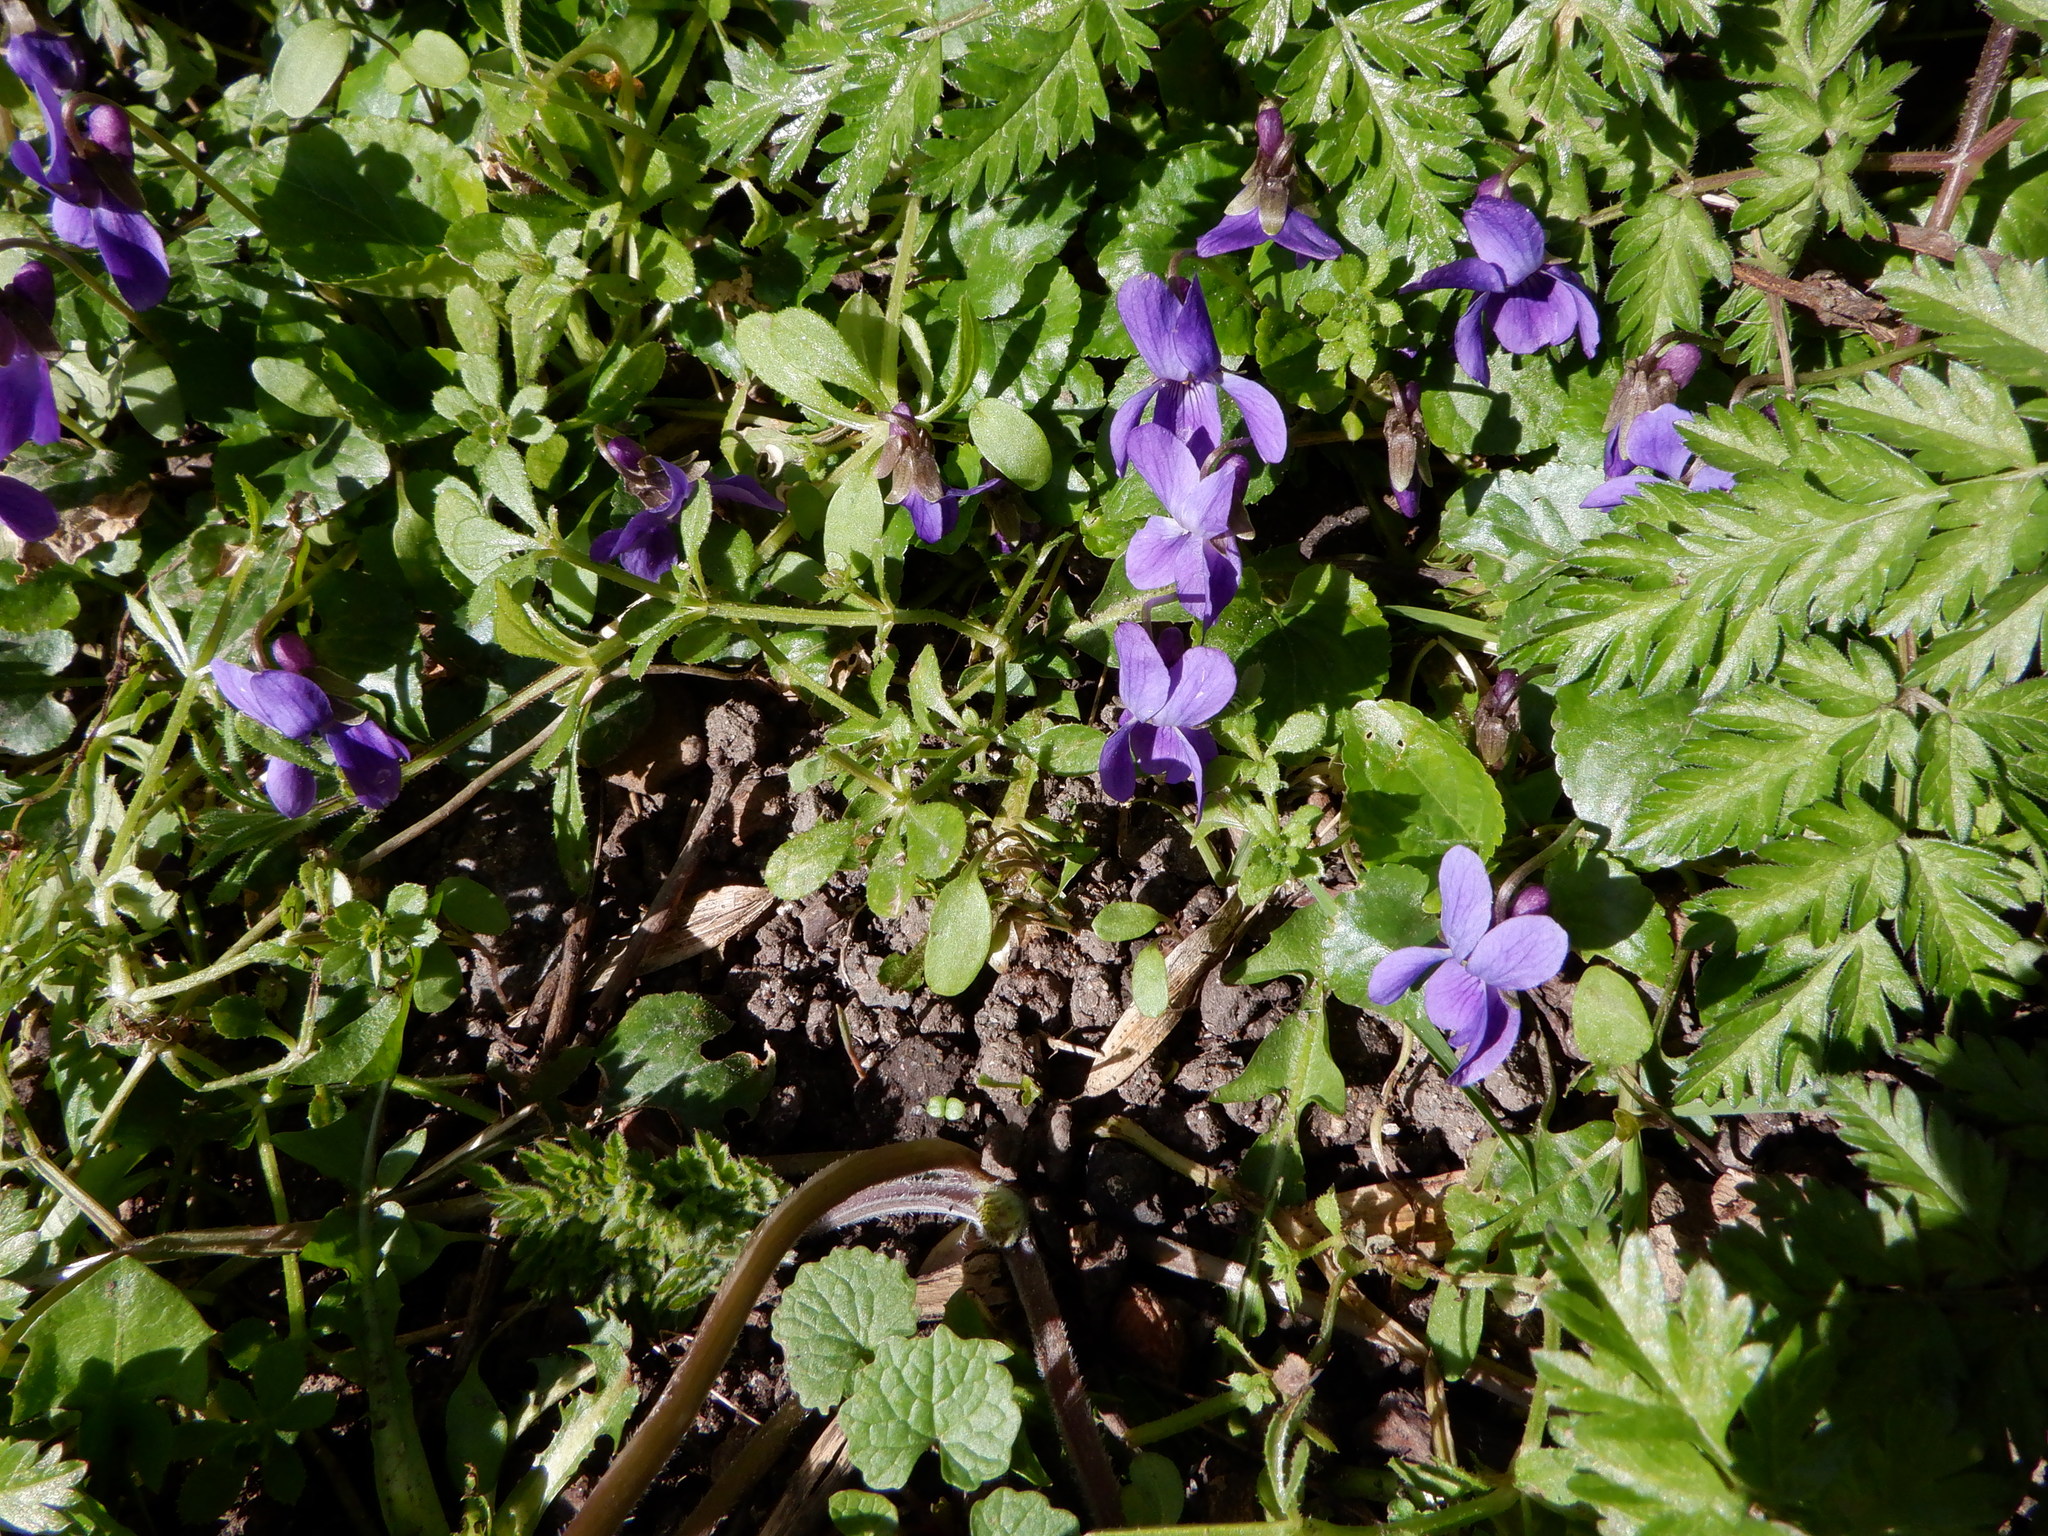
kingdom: Plantae
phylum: Tracheophyta
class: Magnoliopsida
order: Malpighiales
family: Violaceae
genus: Viola
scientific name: Viola odorata
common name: Sweet violet
